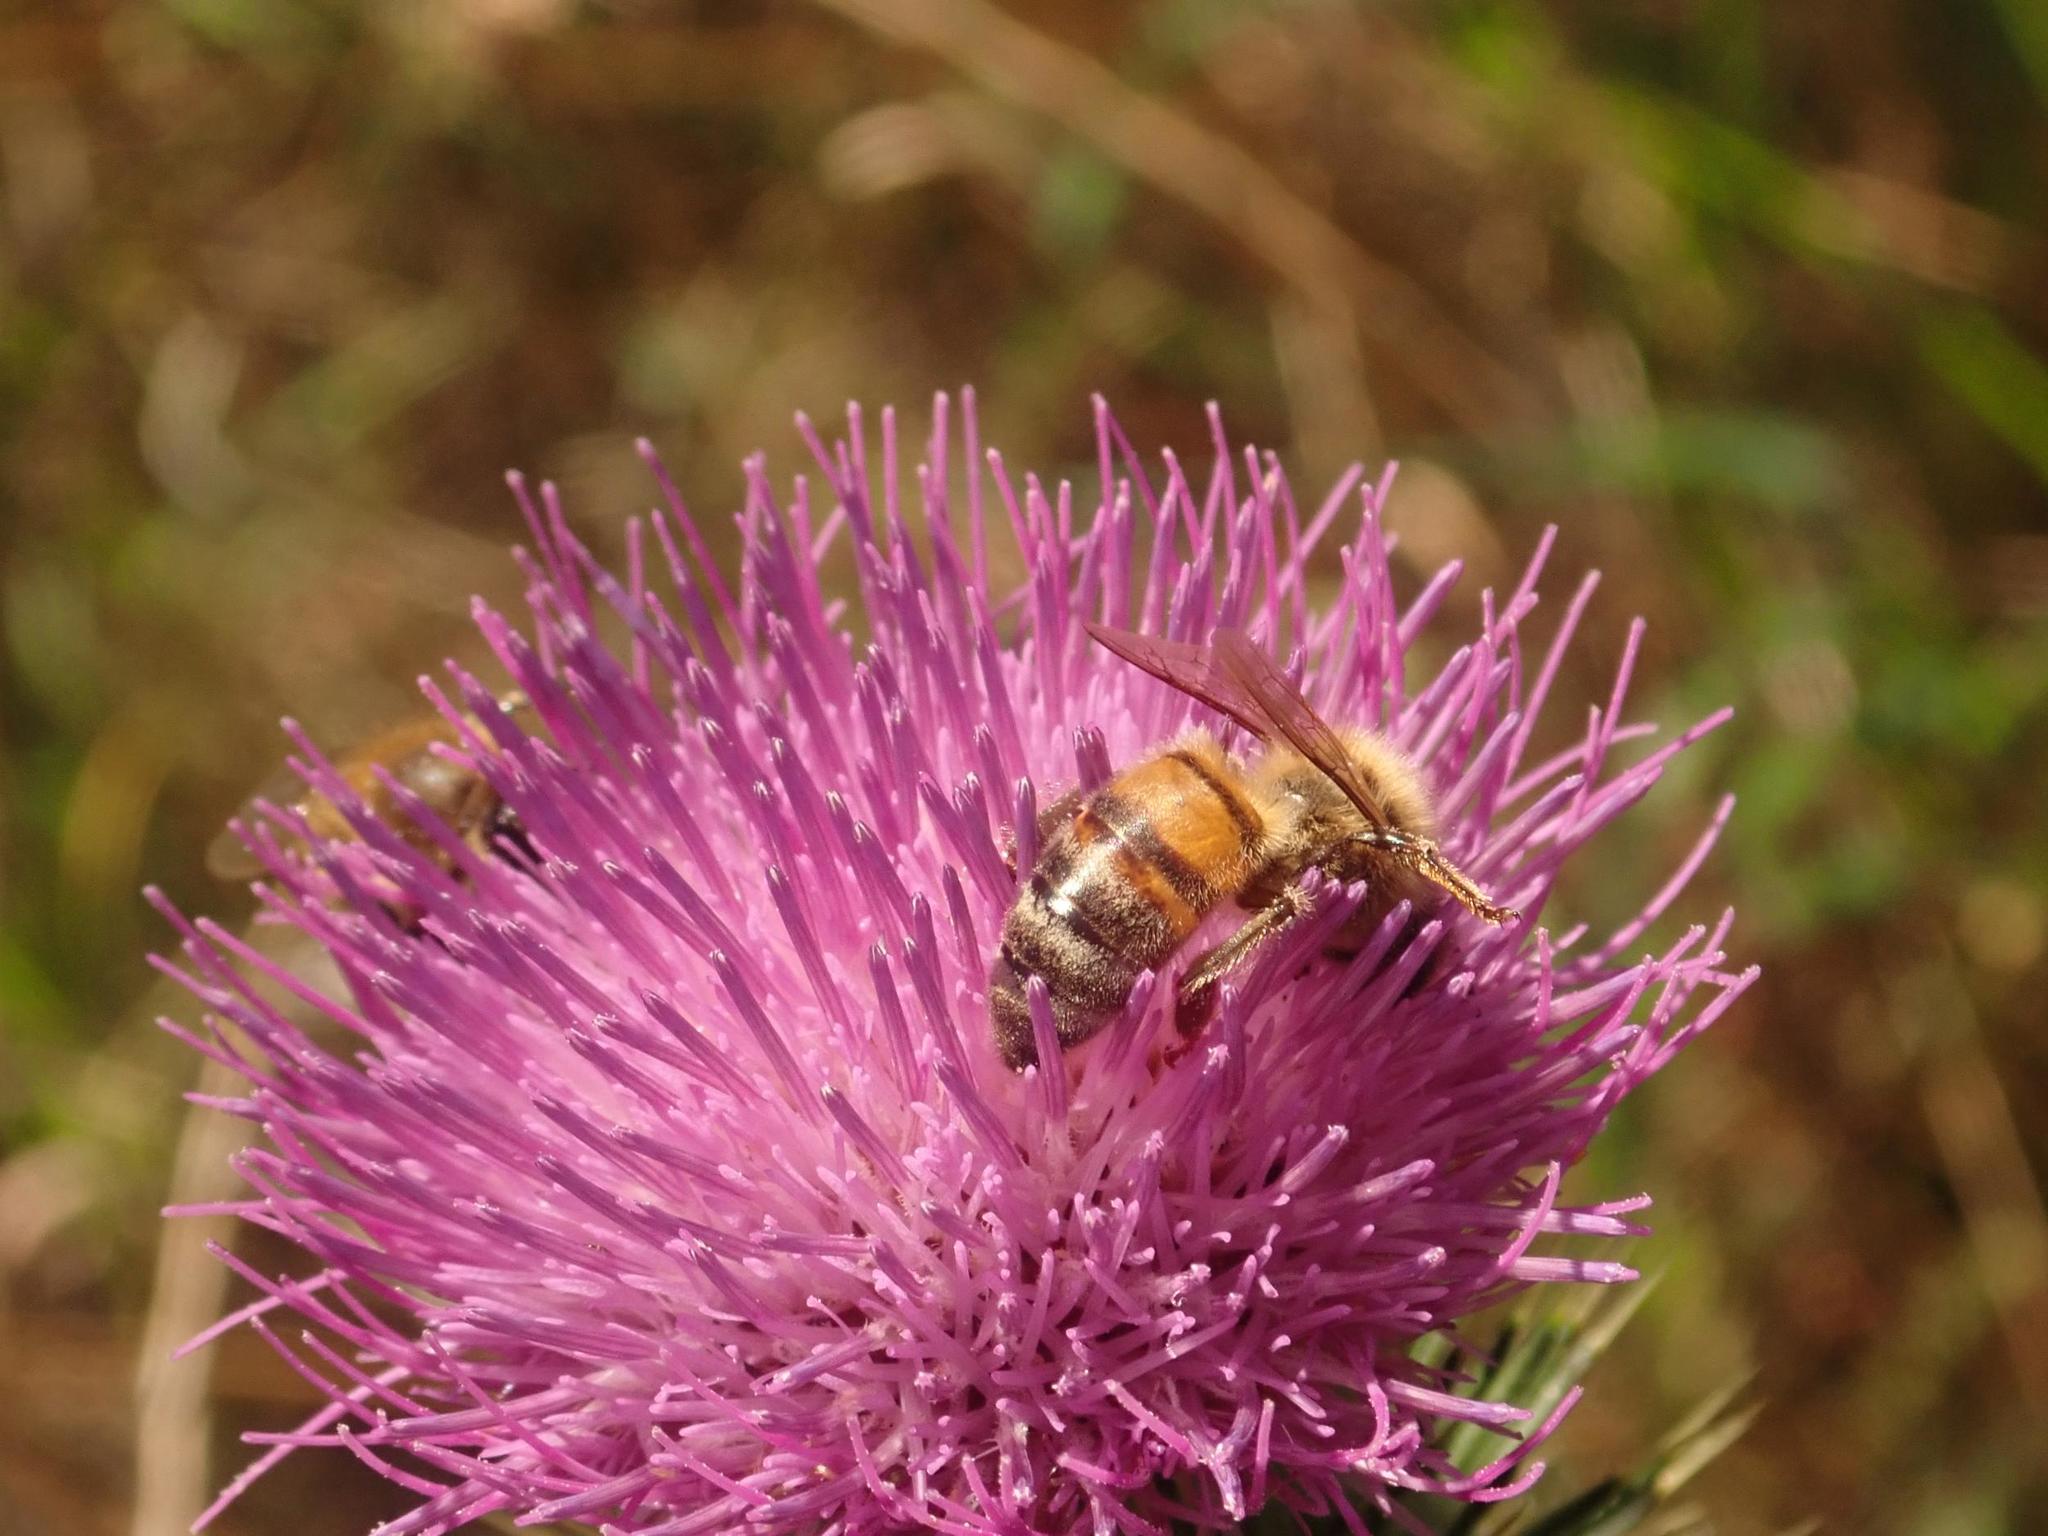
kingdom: Animalia
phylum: Arthropoda
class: Insecta
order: Hymenoptera
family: Apidae
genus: Apis
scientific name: Apis mellifera
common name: Honey bee
